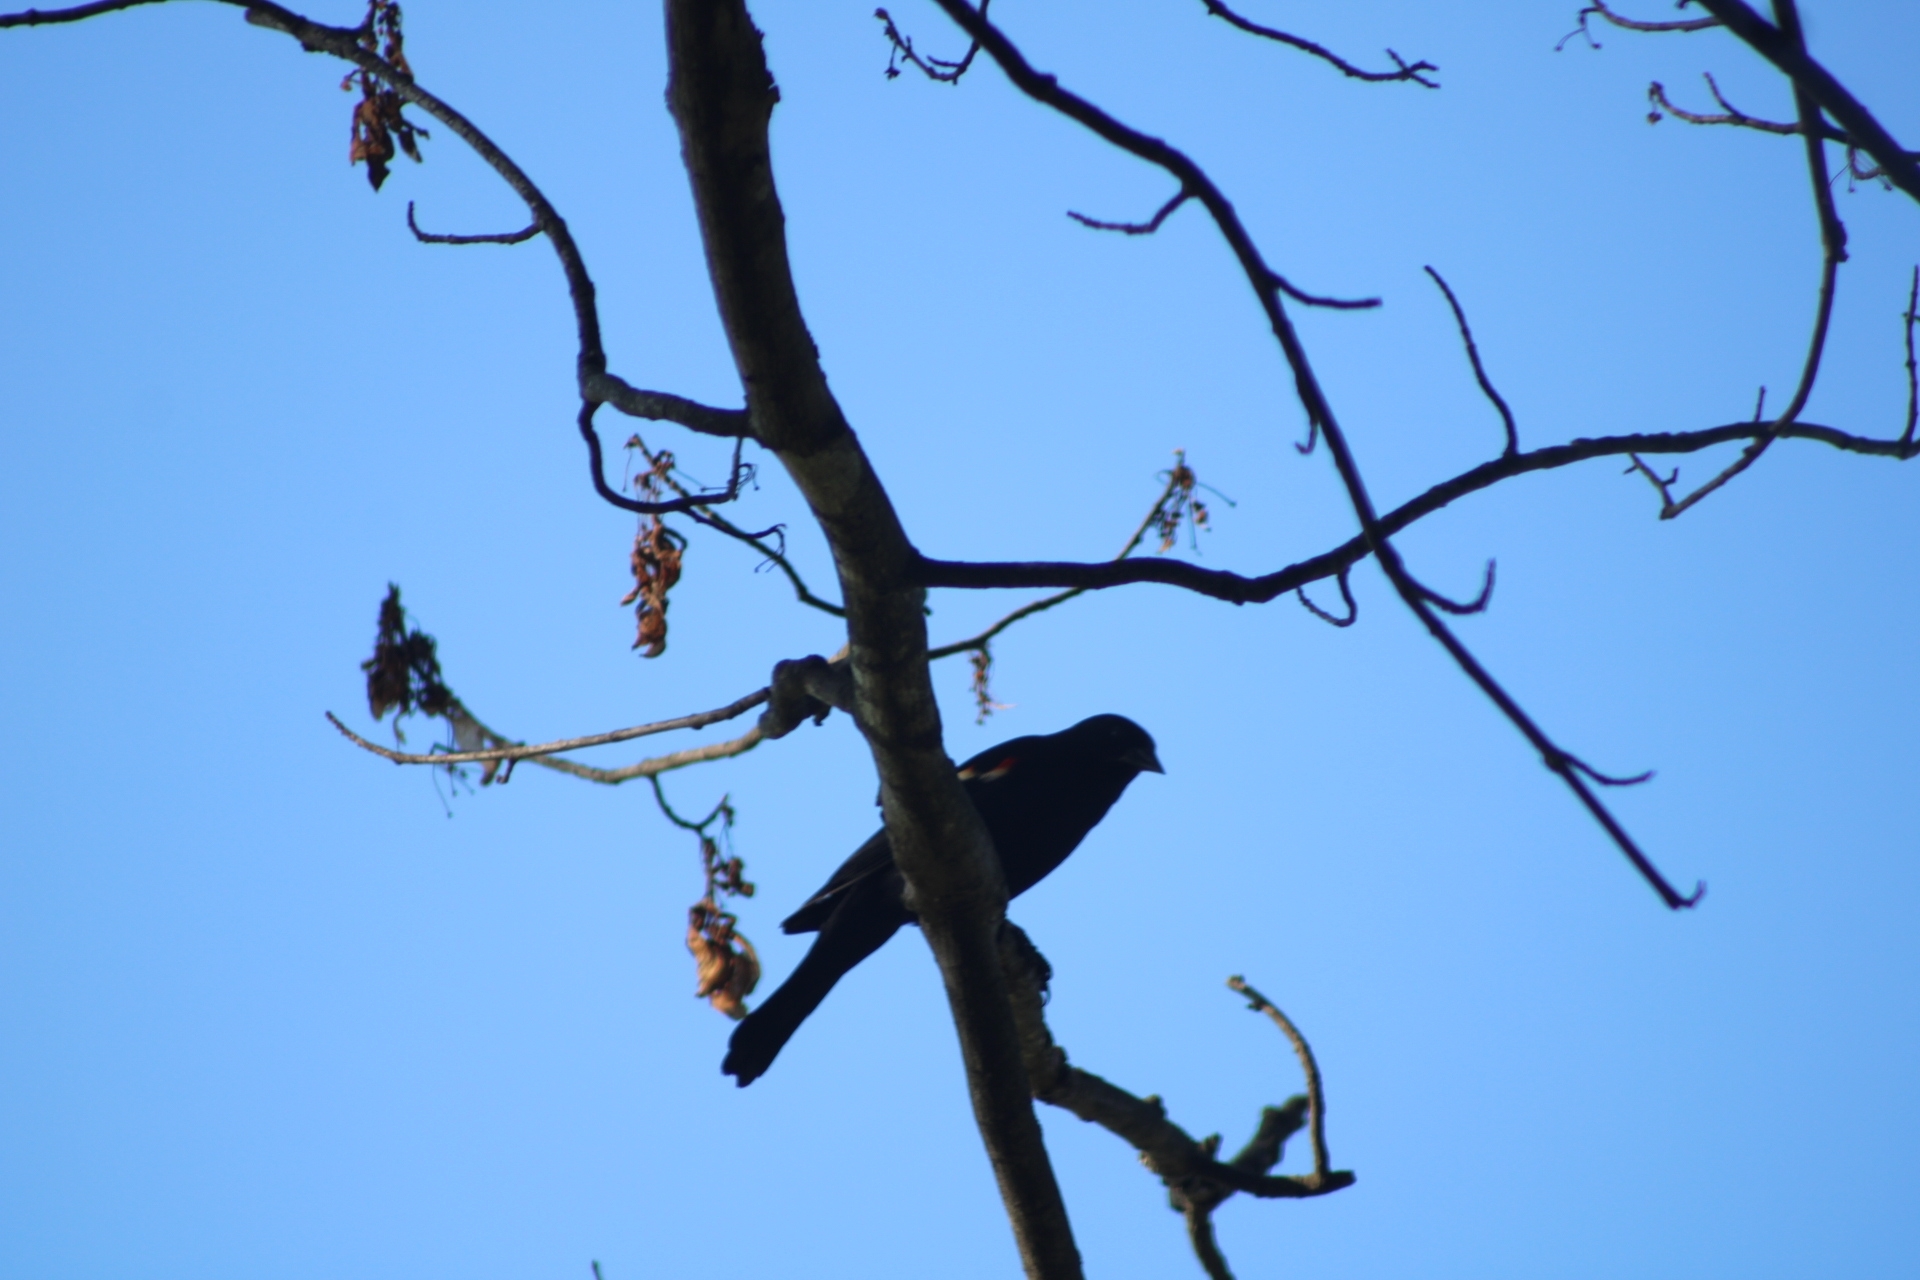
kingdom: Animalia
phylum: Chordata
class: Aves
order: Passeriformes
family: Icteridae
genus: Agelaius
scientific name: Agelaius phoeniceus
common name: Red-winged blackbird
